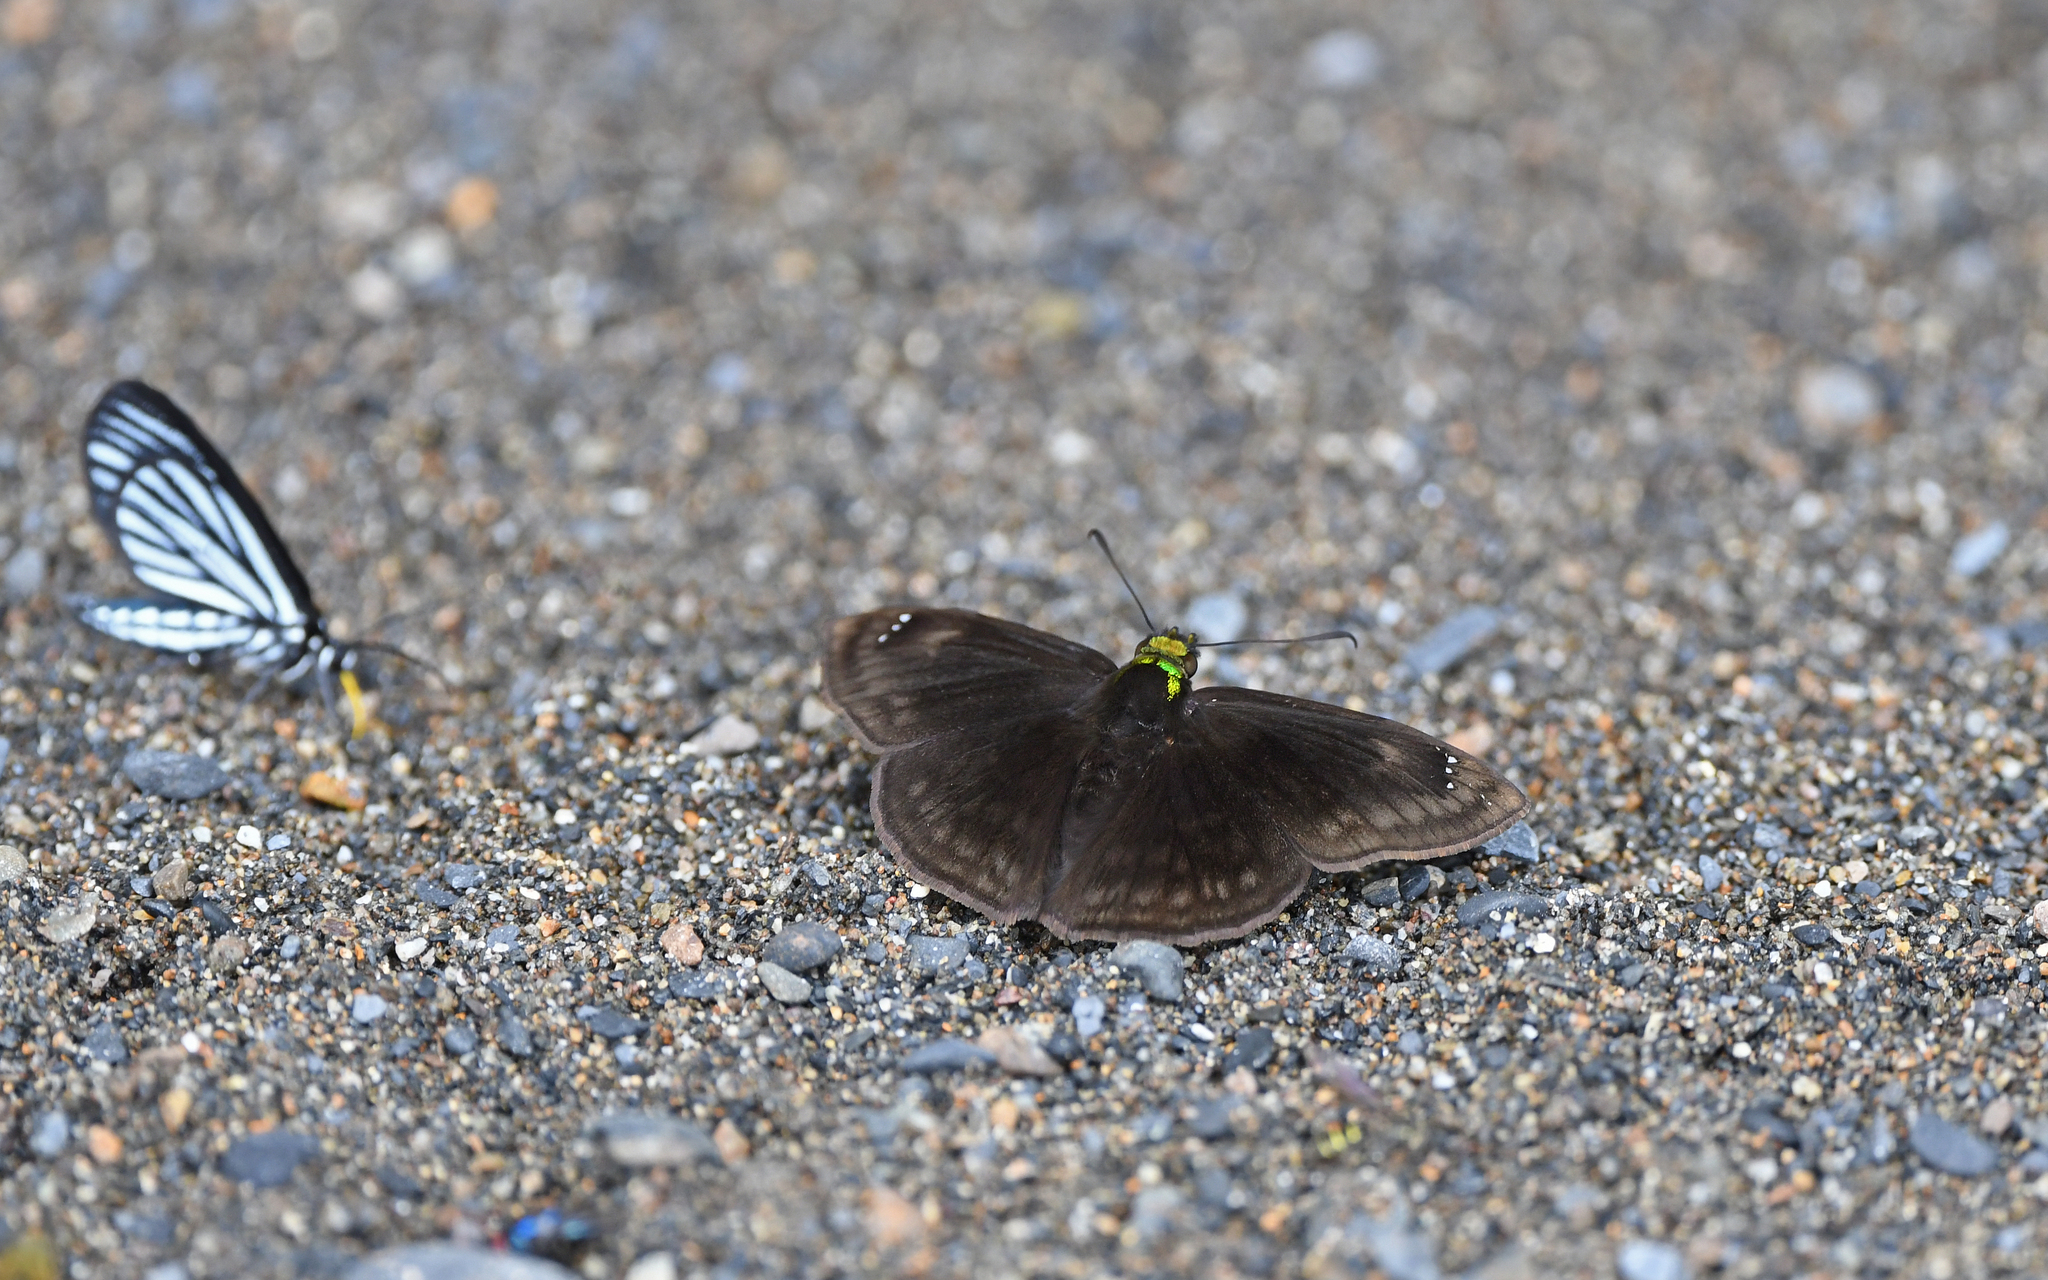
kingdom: Animalia
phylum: Arthropoda
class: Insecta
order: Lepidoptera
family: Hesperiidae
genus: Gorgopas
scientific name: Gorgopas chlorocephala
